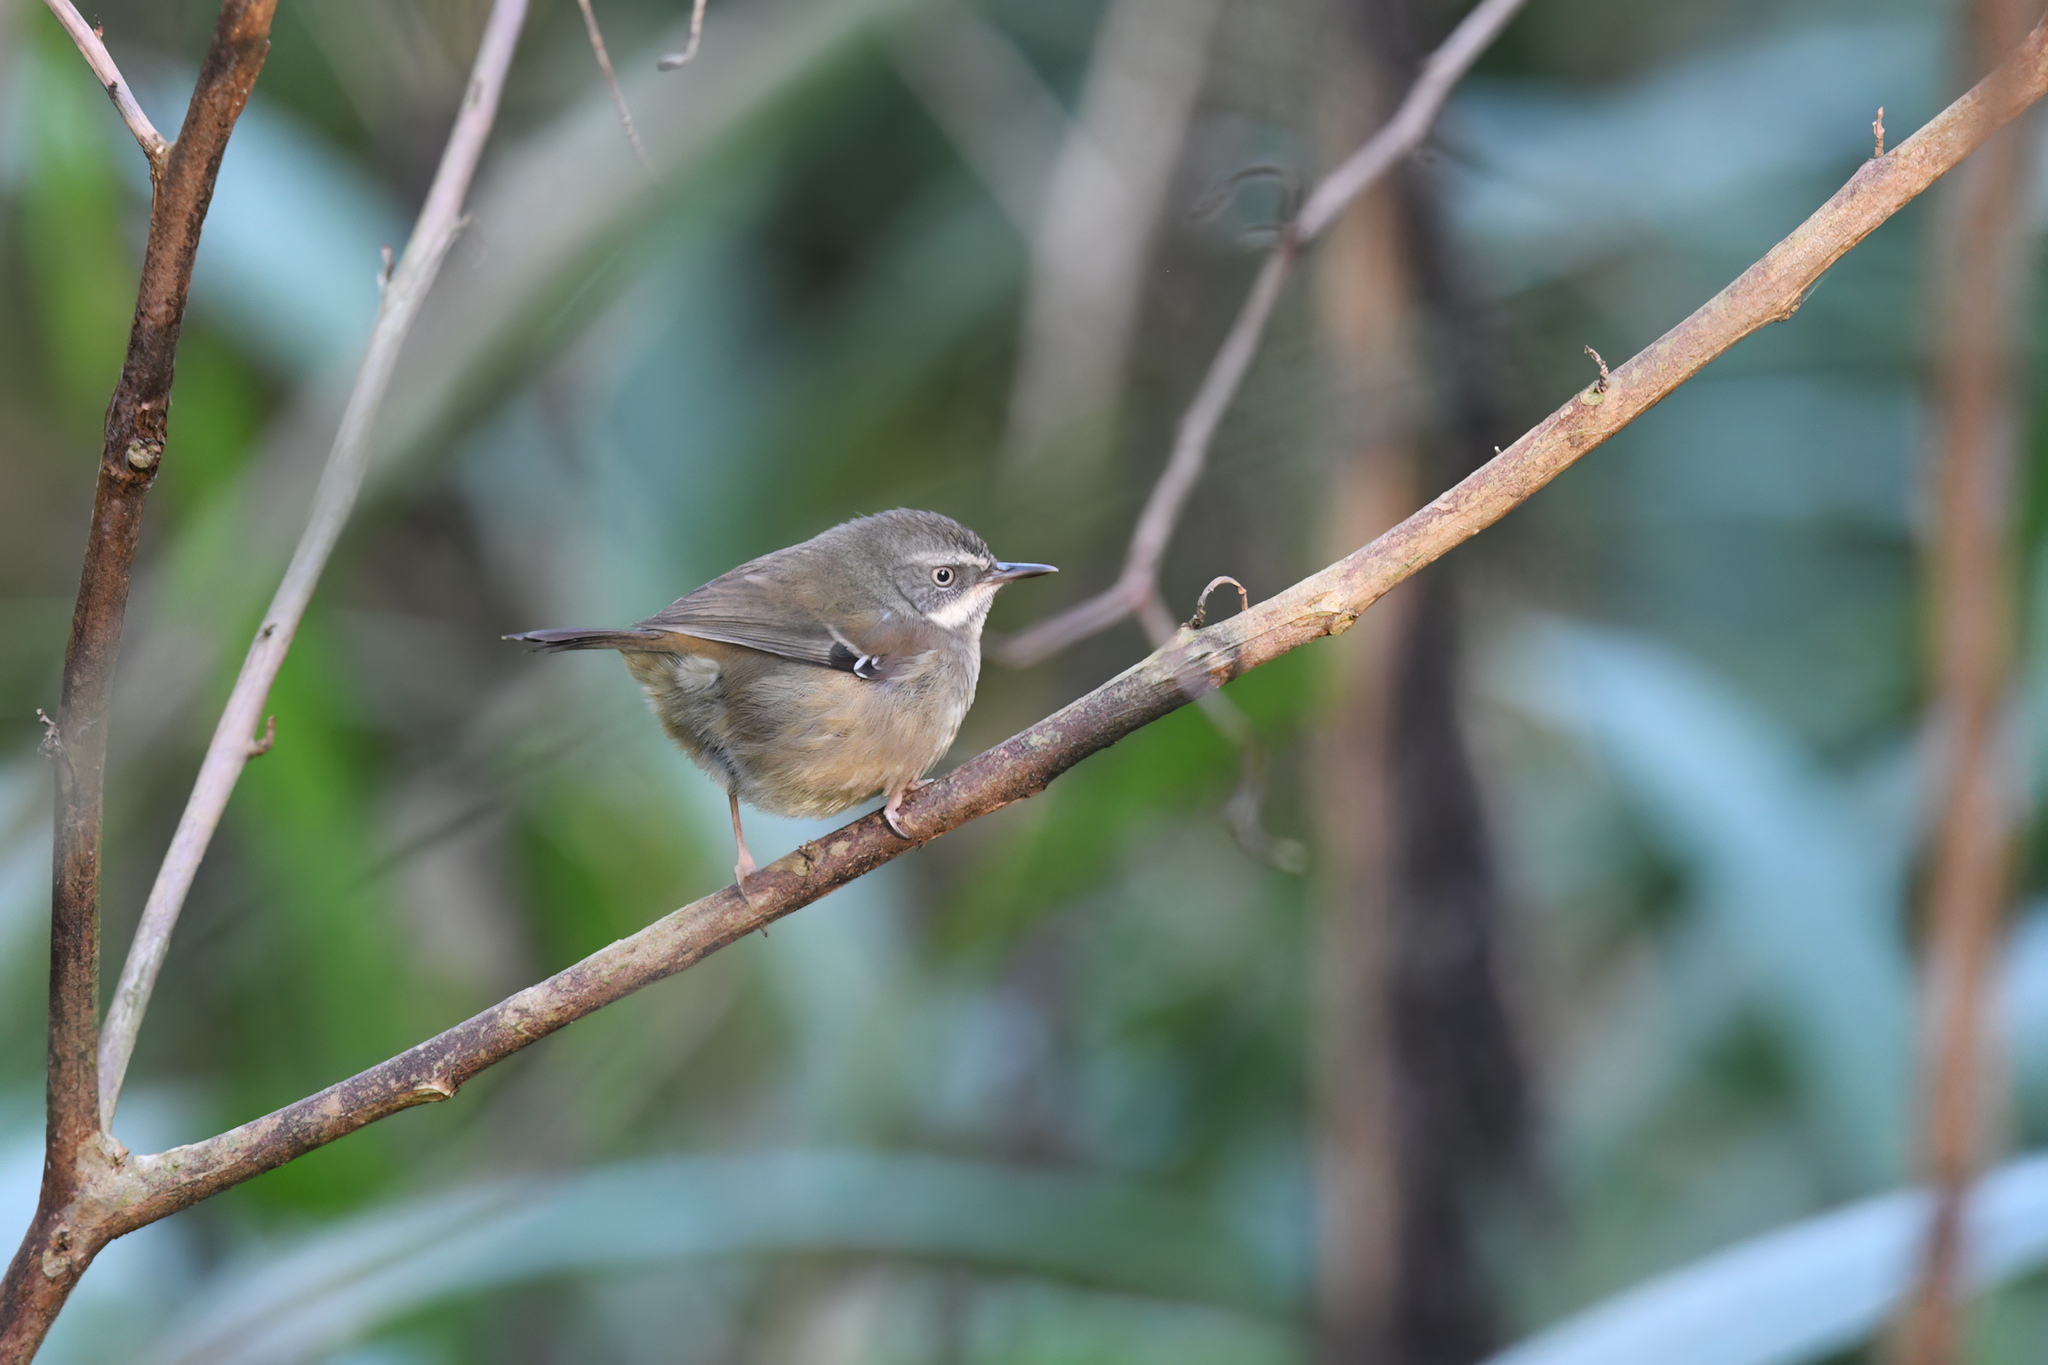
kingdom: Animalia
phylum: Chordata
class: Aves
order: Passeriformes
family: Acanthizidae
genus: Sericornis
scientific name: Sericornis frontalis
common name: White-browed scrubwren
